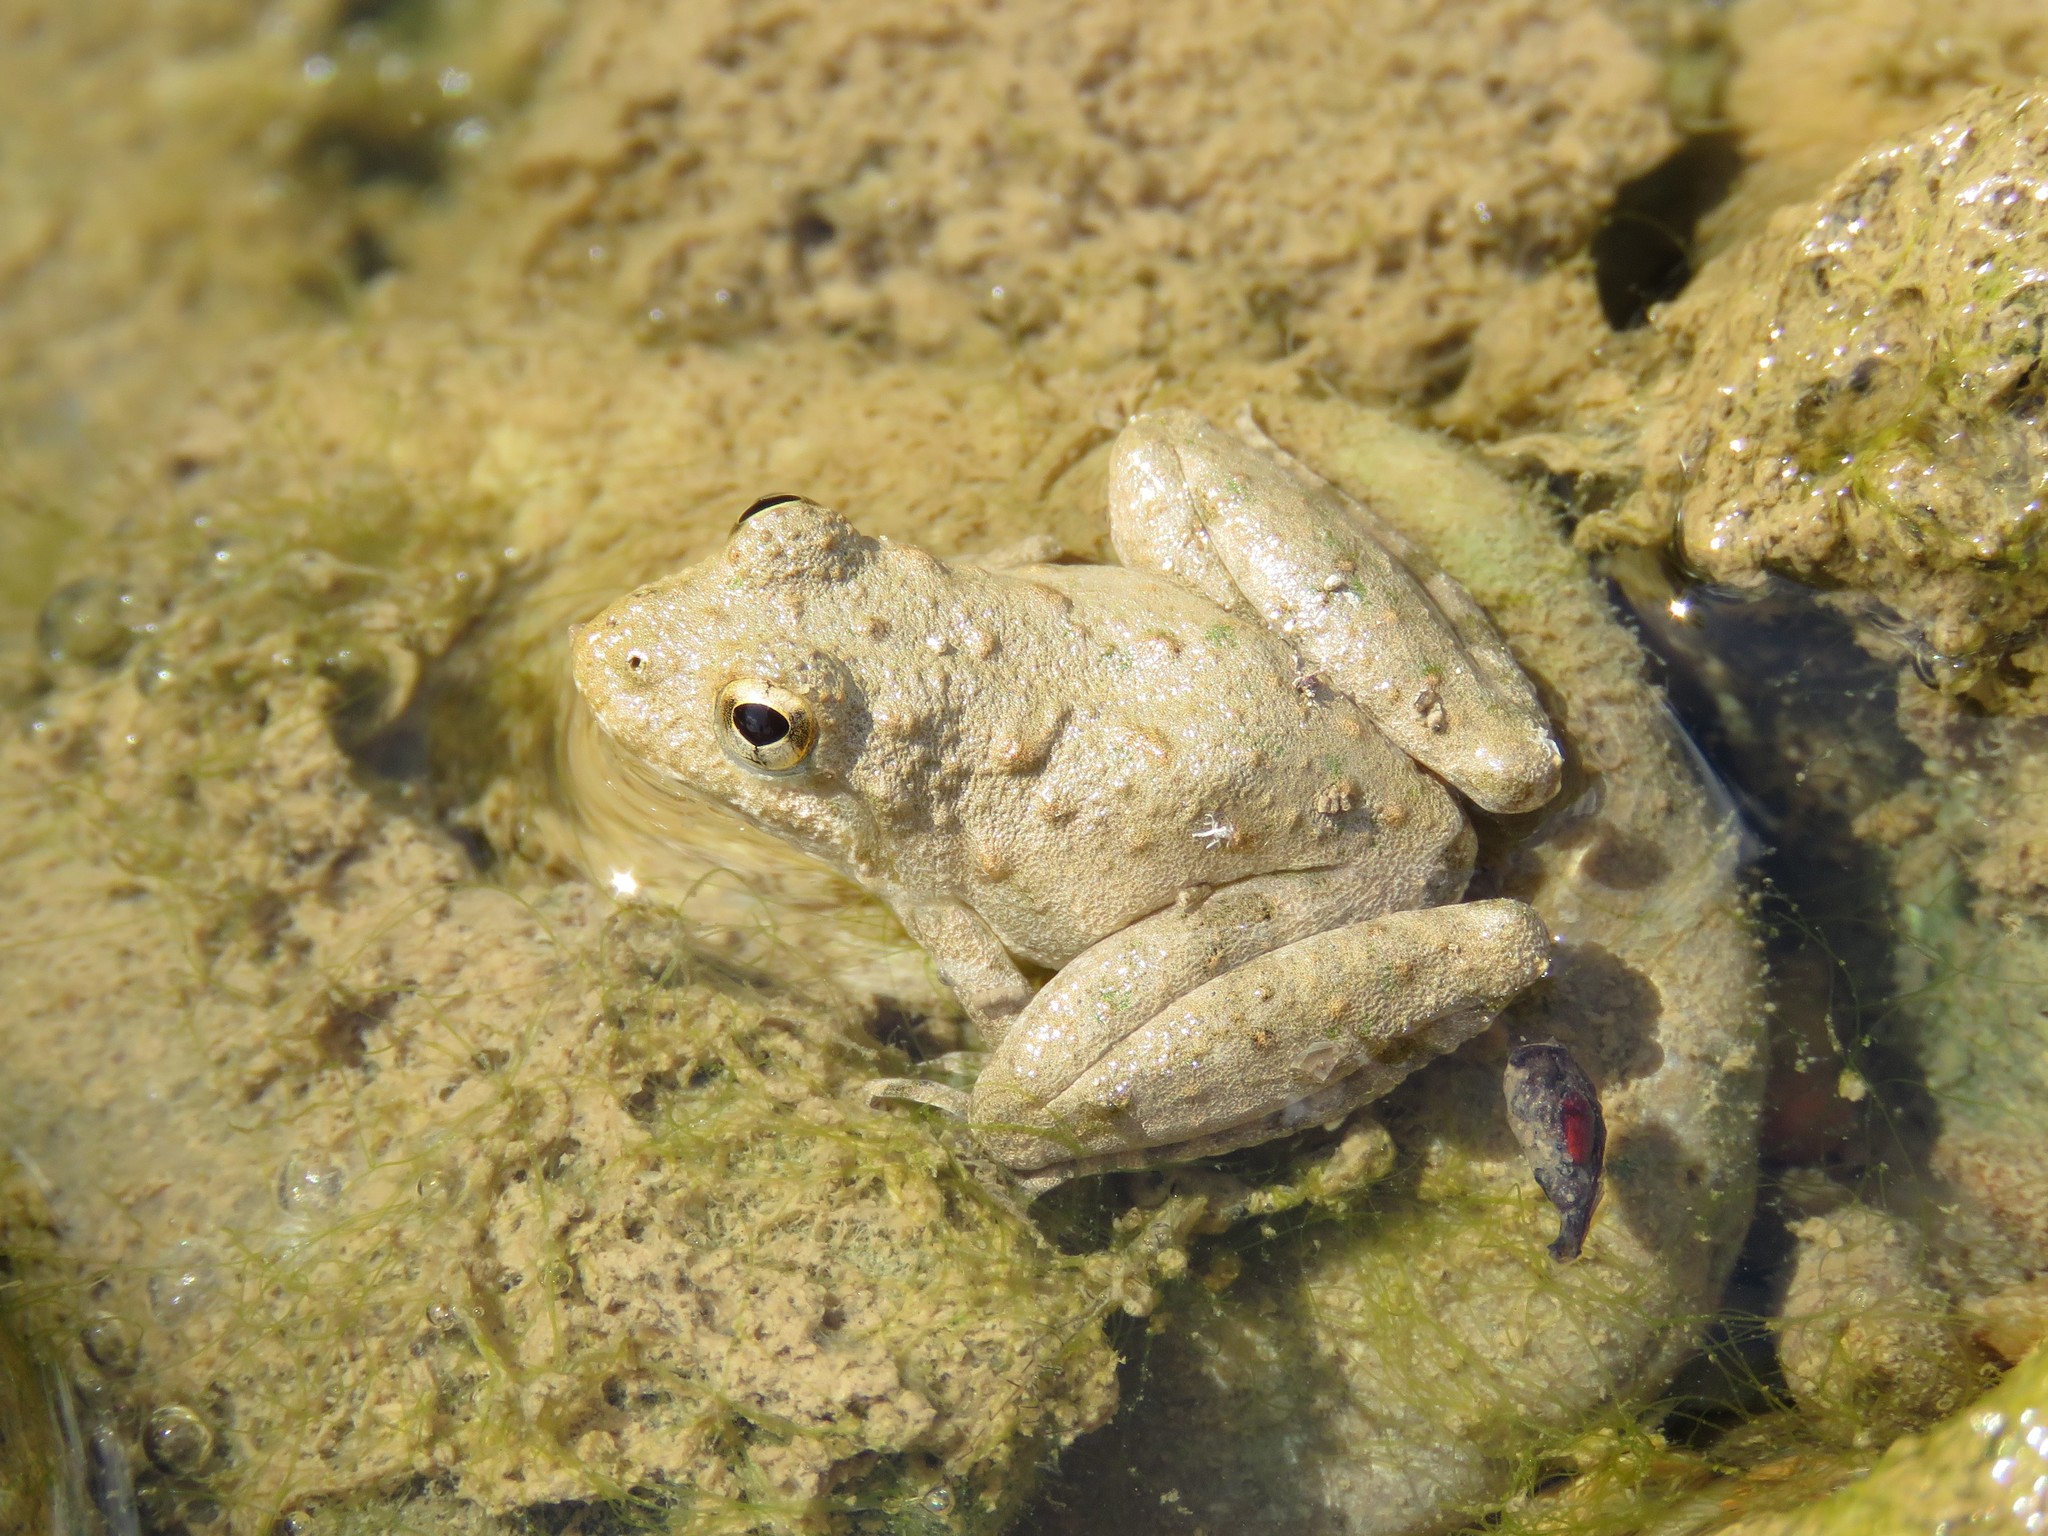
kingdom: Animalia
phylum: Chordata
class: Amphibia
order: Anura
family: Hylidae
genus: Acris
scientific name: Acris blanchardi
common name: Blanchard's cricket frog
